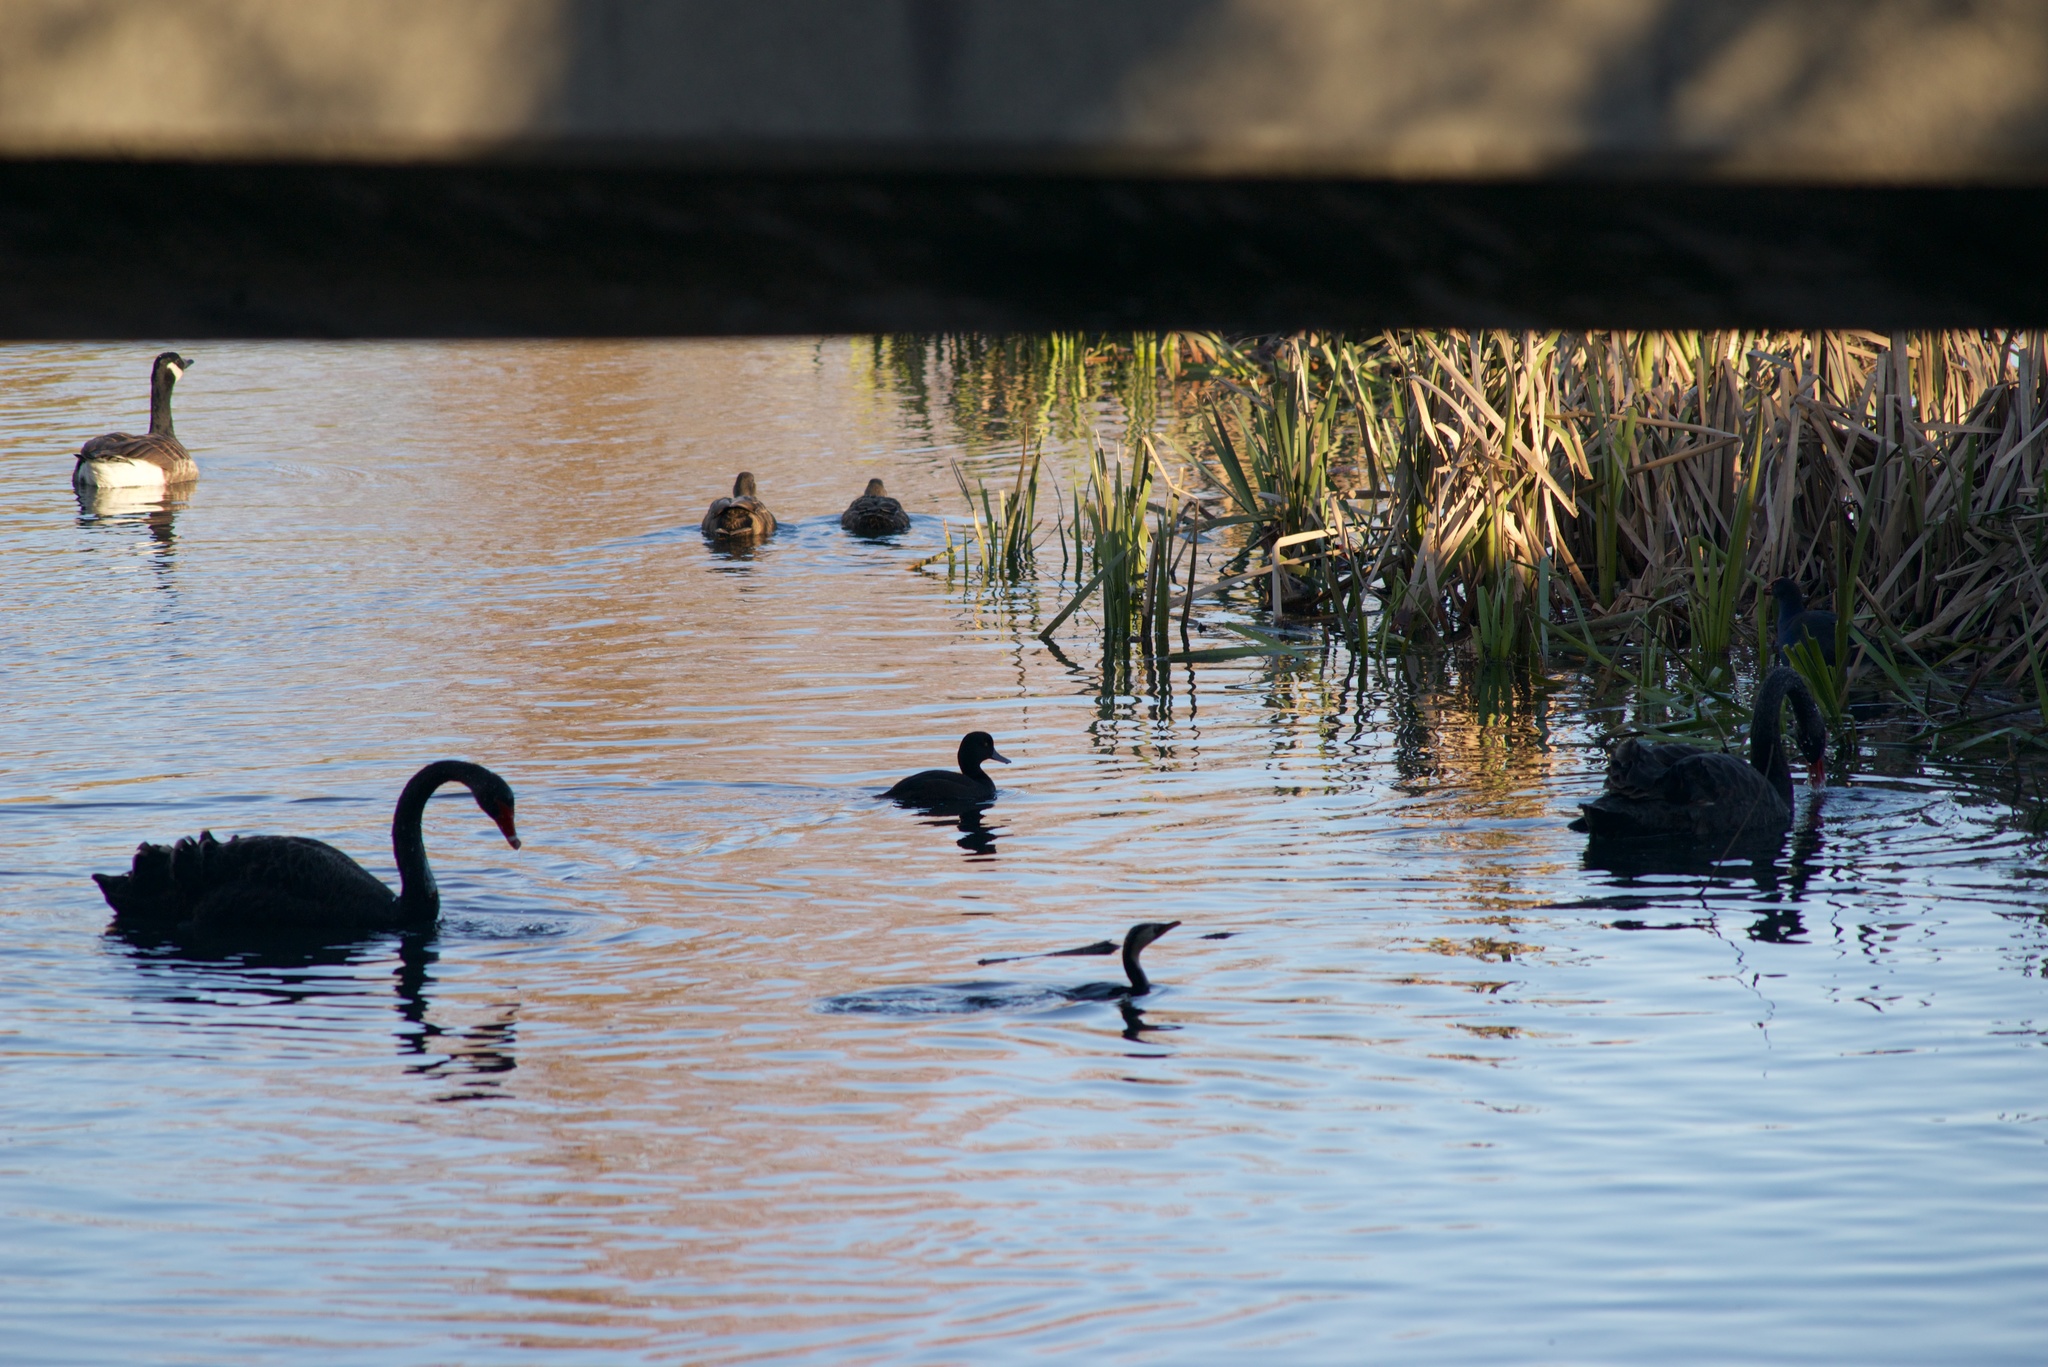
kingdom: Animalia
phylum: Chordata
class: Aves
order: Anseriformes
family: Anatidae
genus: Anas
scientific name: Anas
